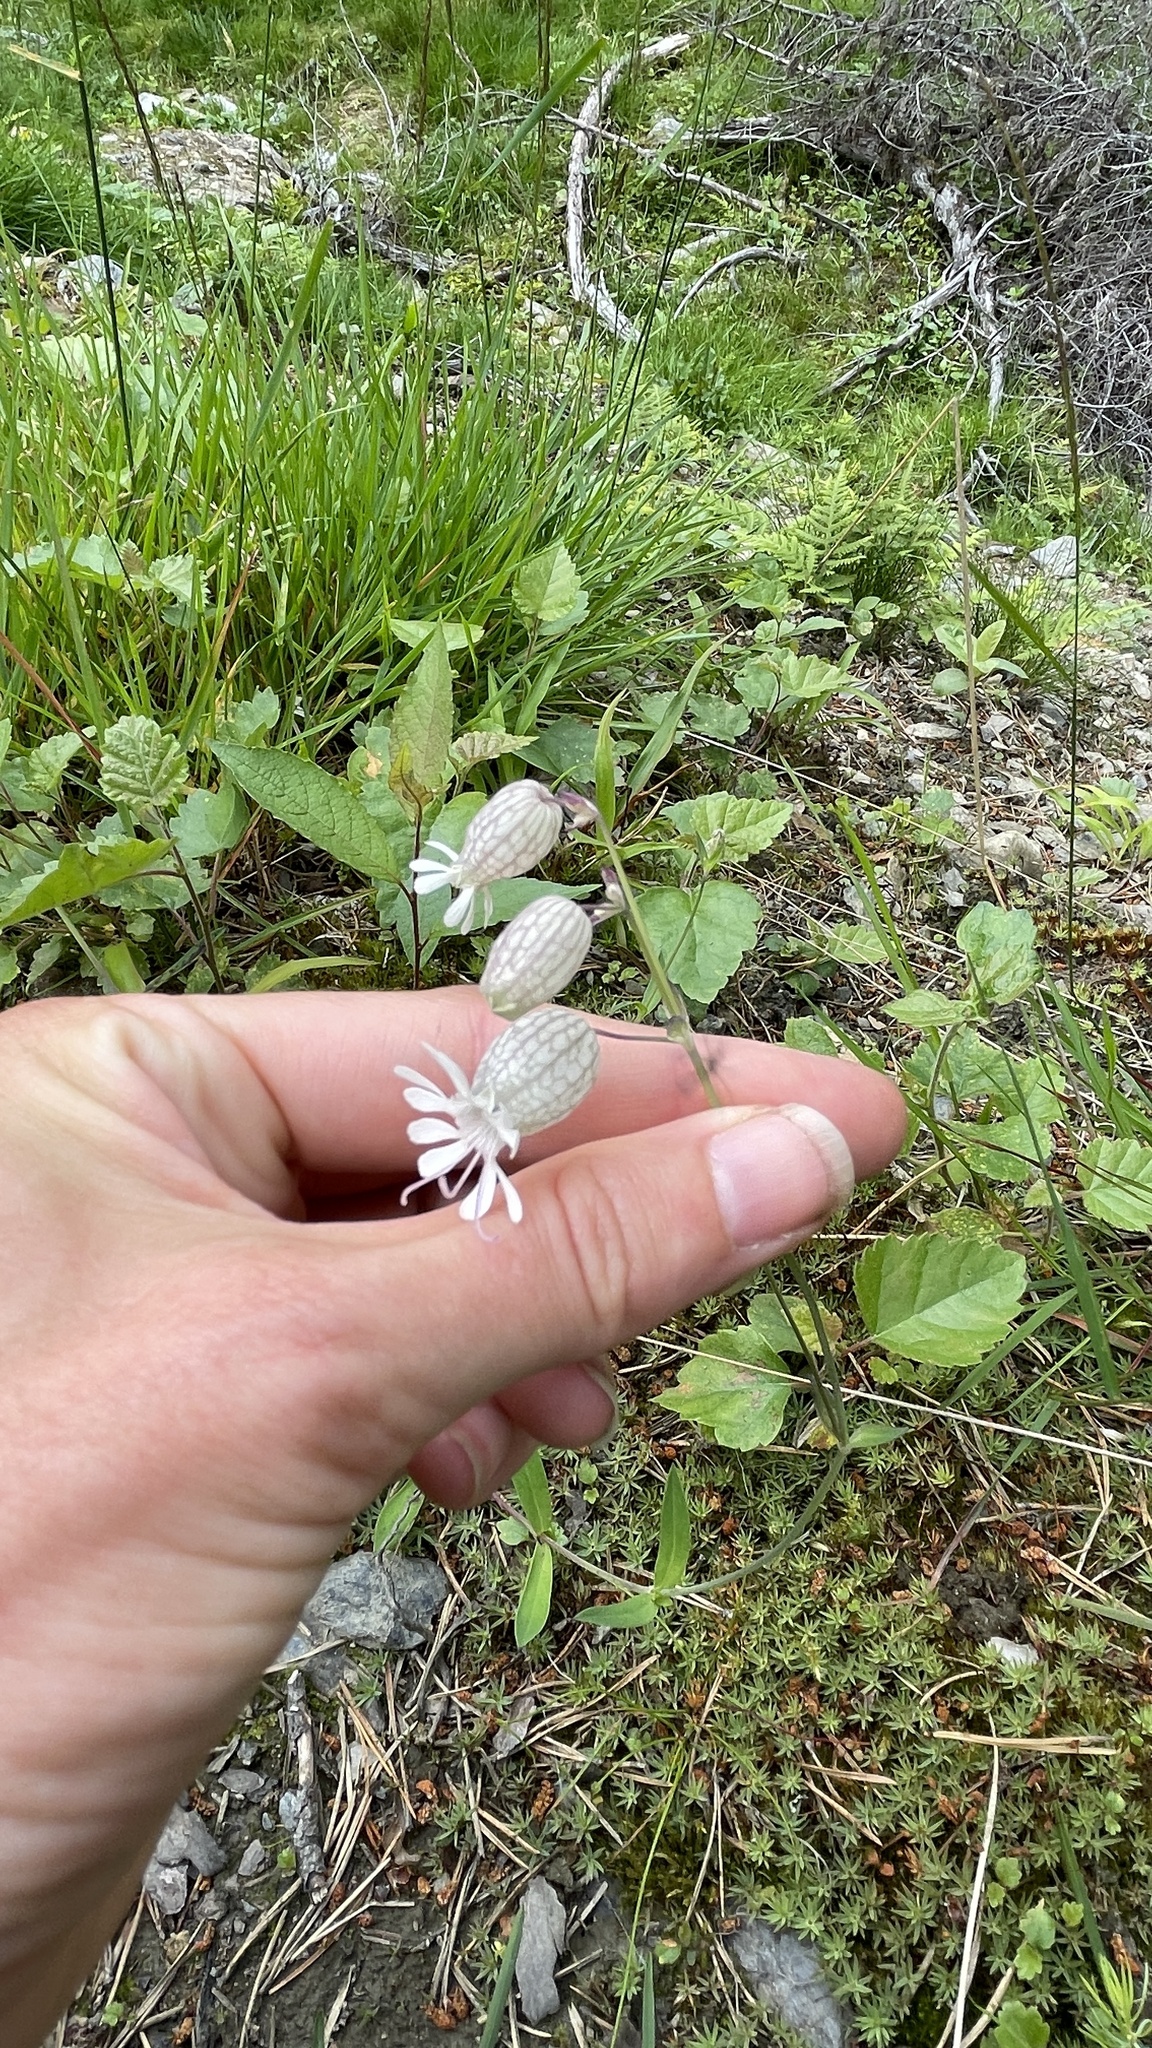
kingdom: Plantae
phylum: Tracheophyta
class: Magnoliopsida
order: Caryophyllales
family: Caryophyllaceae
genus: Silene
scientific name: Silene vulgaris
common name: Bladder campion
